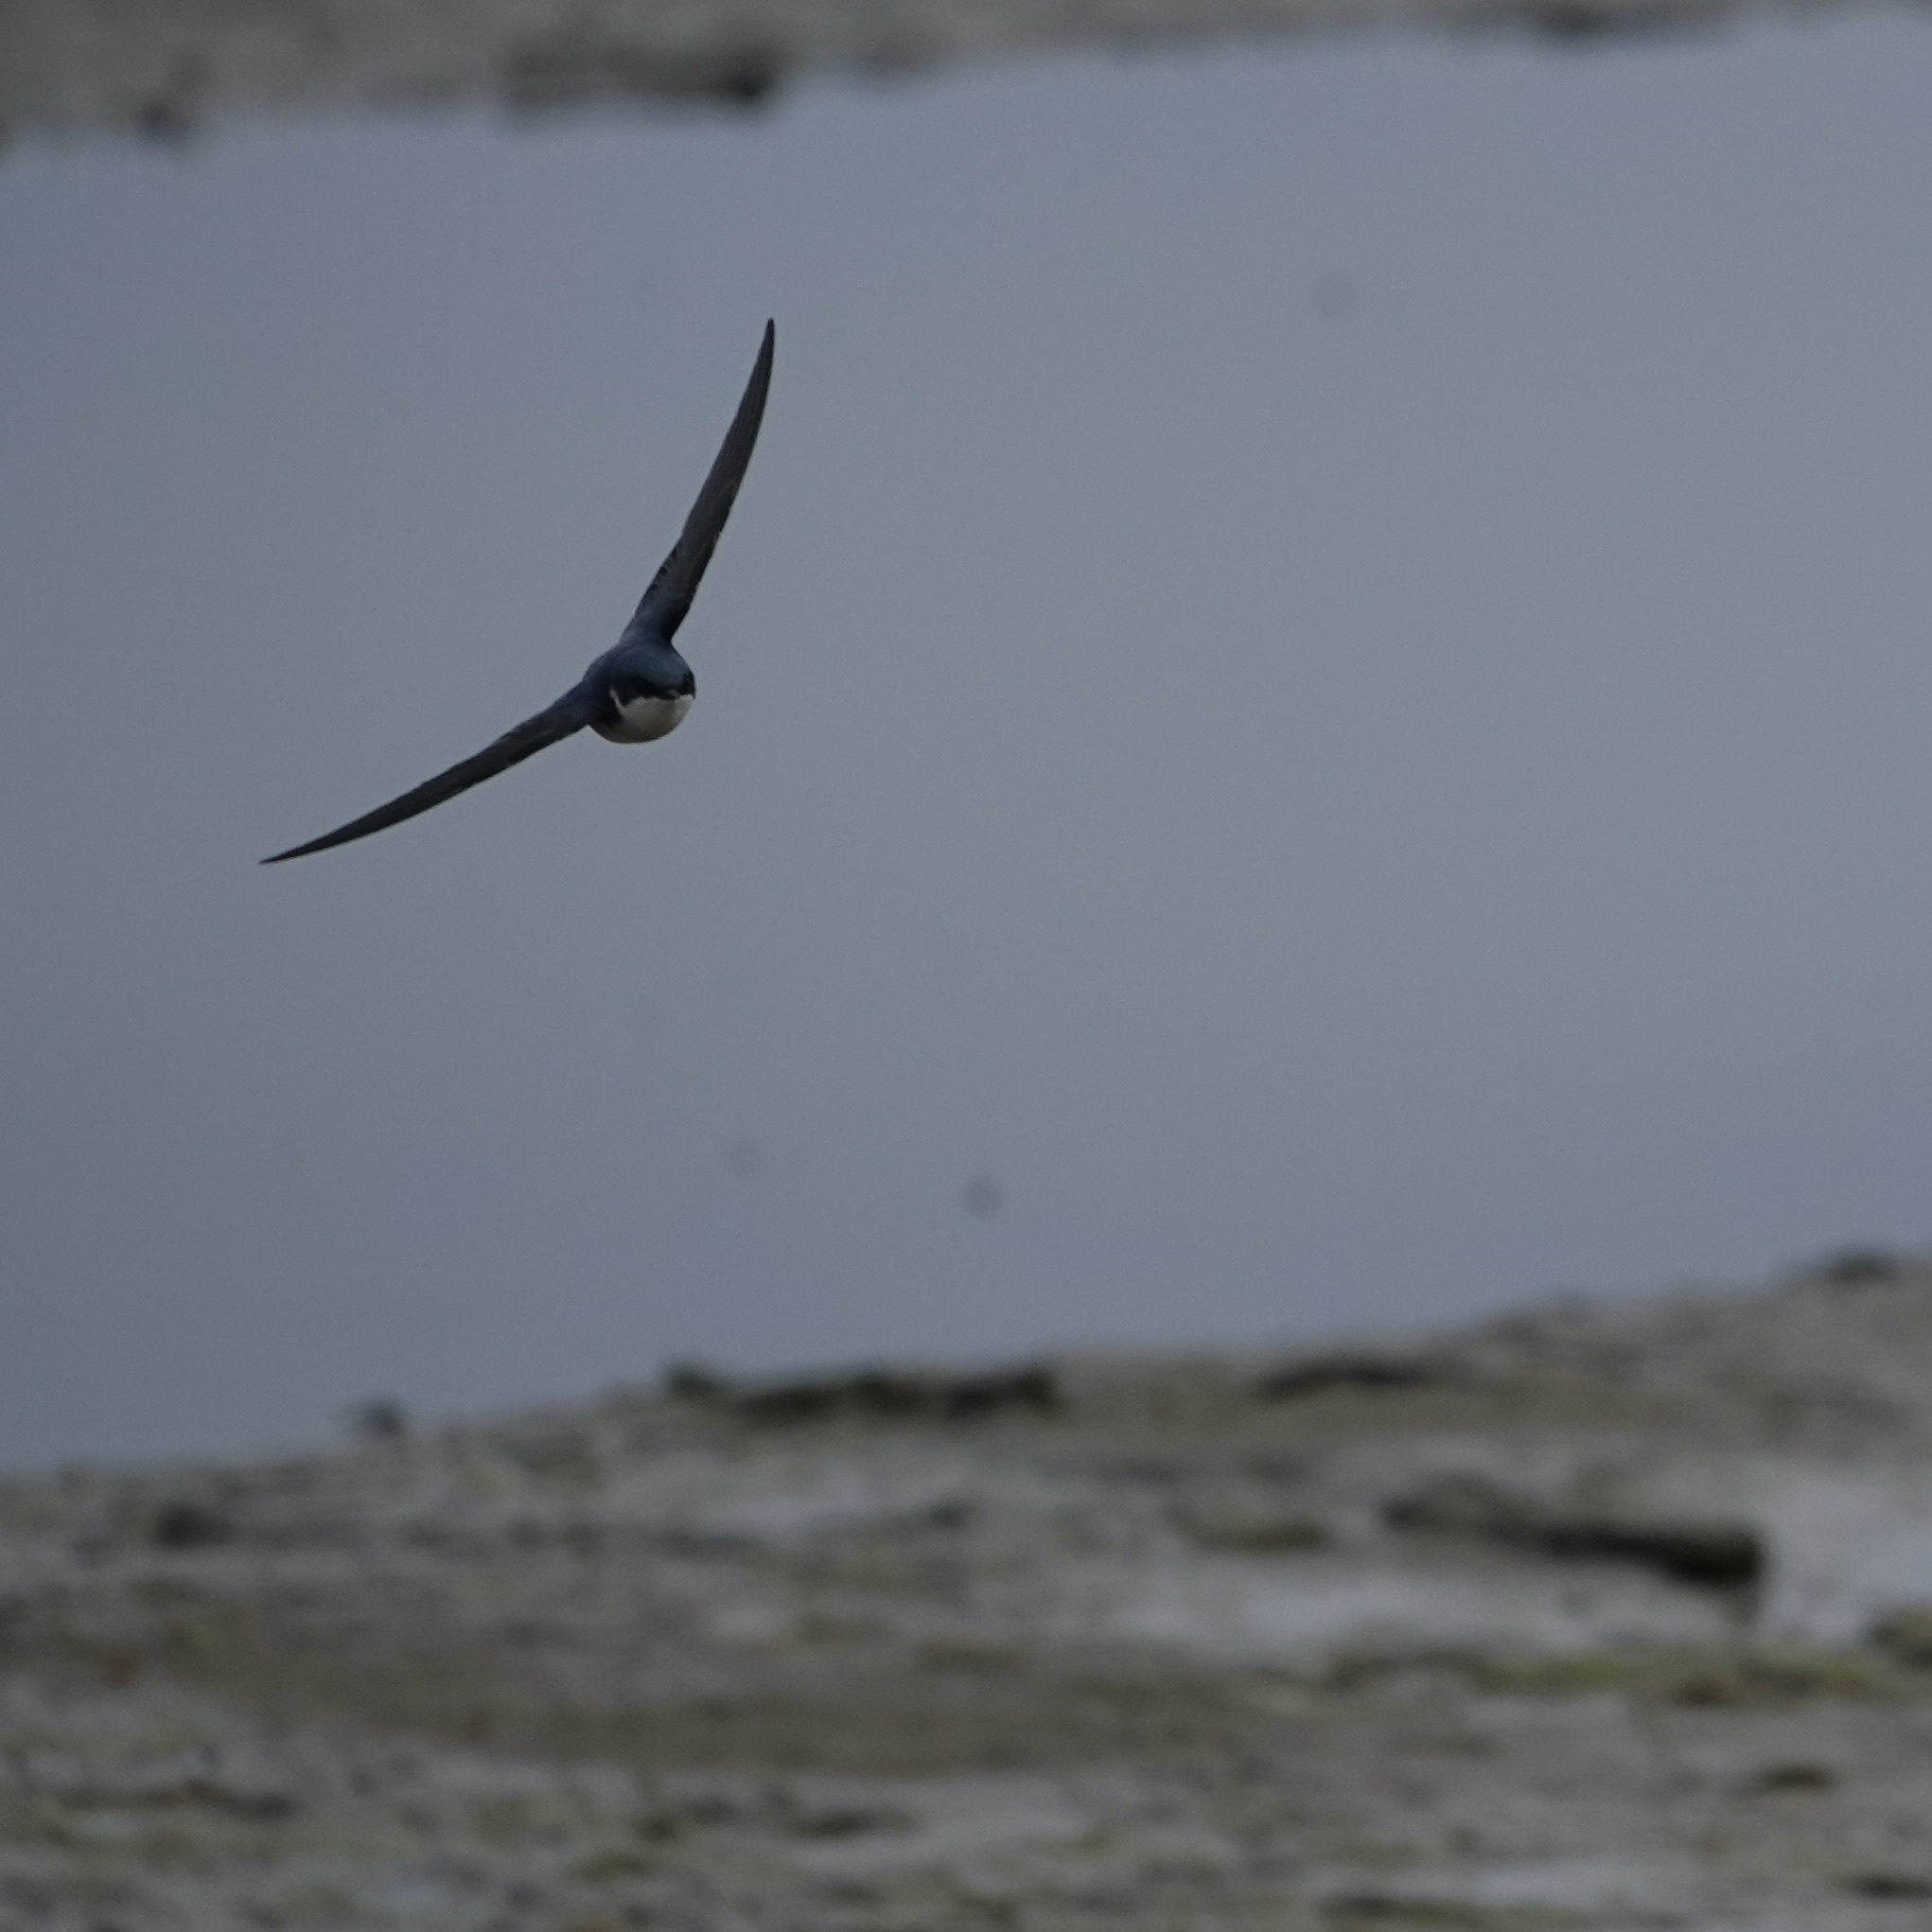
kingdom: Animalia
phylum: Chordata
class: Aves
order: Passeriformes
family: Hirundinidae
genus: Tachycineta
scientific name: Tachycineta bicolor
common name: Tree swallow
